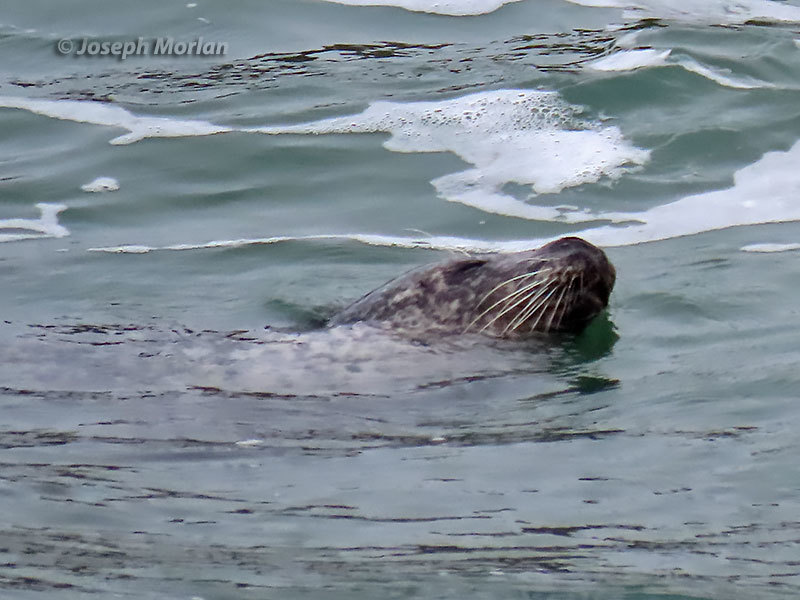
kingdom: Animalia
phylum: Chordata
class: Mammalia
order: Carnivora
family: Phocidae
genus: Phoca
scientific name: Phoca vitulina
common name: Harbor seal
